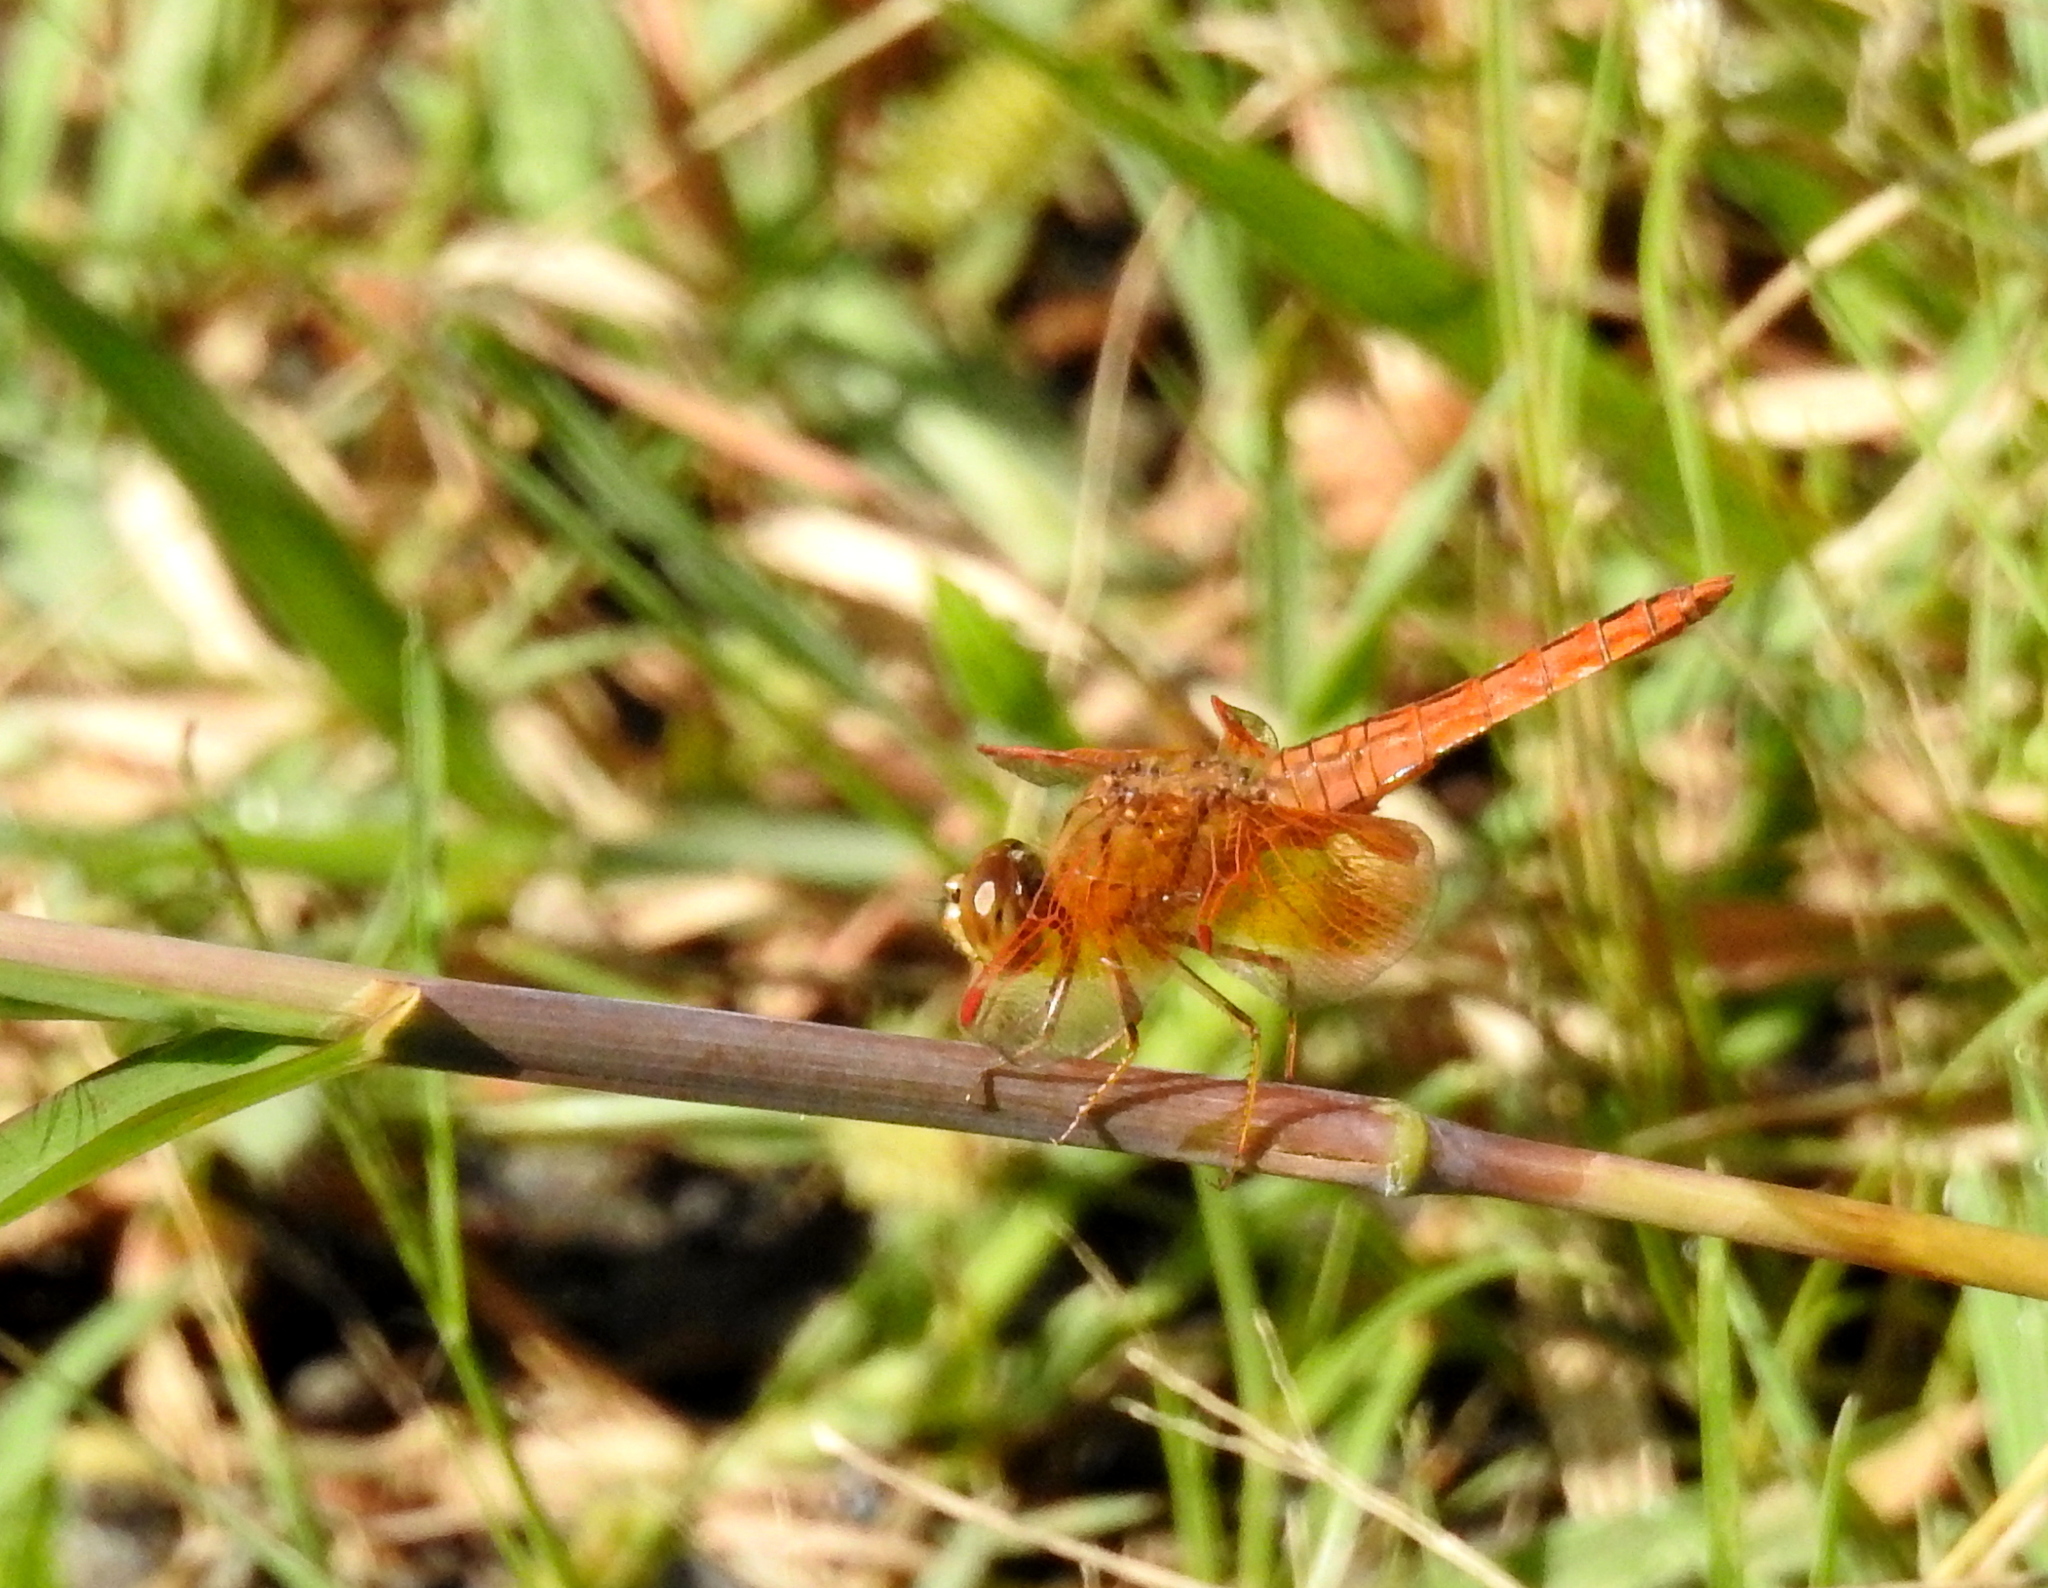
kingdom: Animalia
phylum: Arthropoda
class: Insecta
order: Odonata
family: Libellulidae
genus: Brachythemis
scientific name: Brachythemis contaminata
